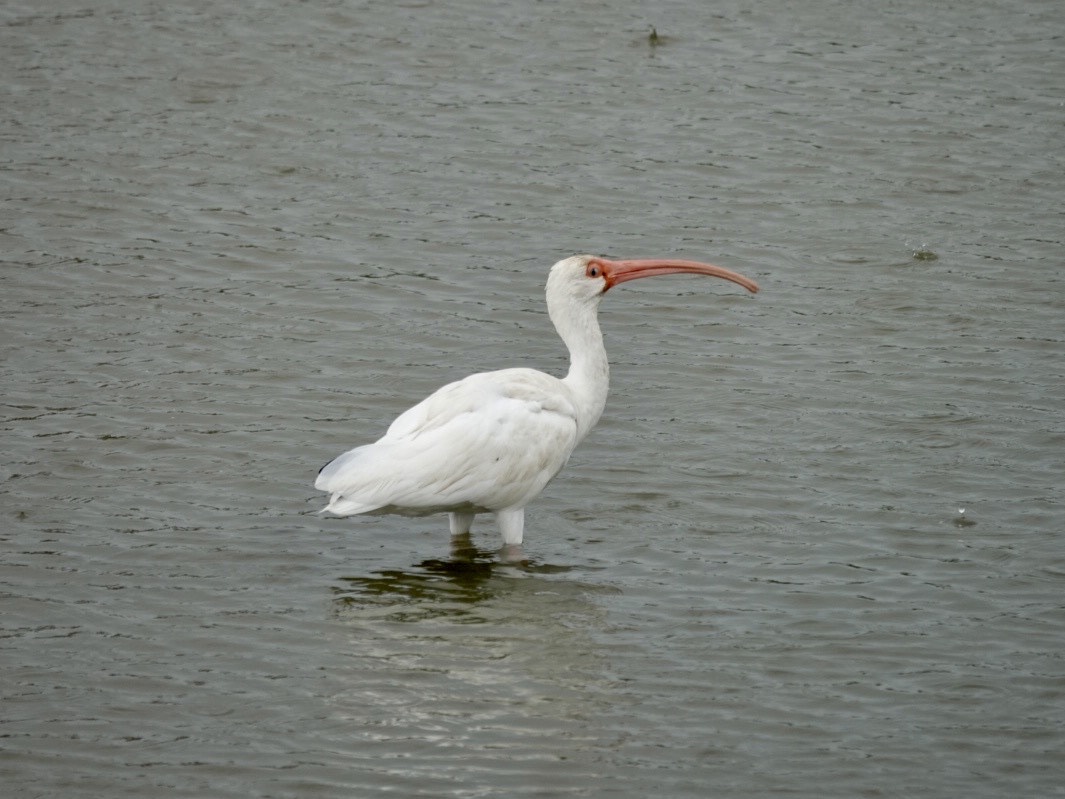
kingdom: Animalia
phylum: Chordata
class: Aves
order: Pelecaniformes
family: Threskiornithidae
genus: Eudocimus
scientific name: Eudocimus albus
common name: White ibis
